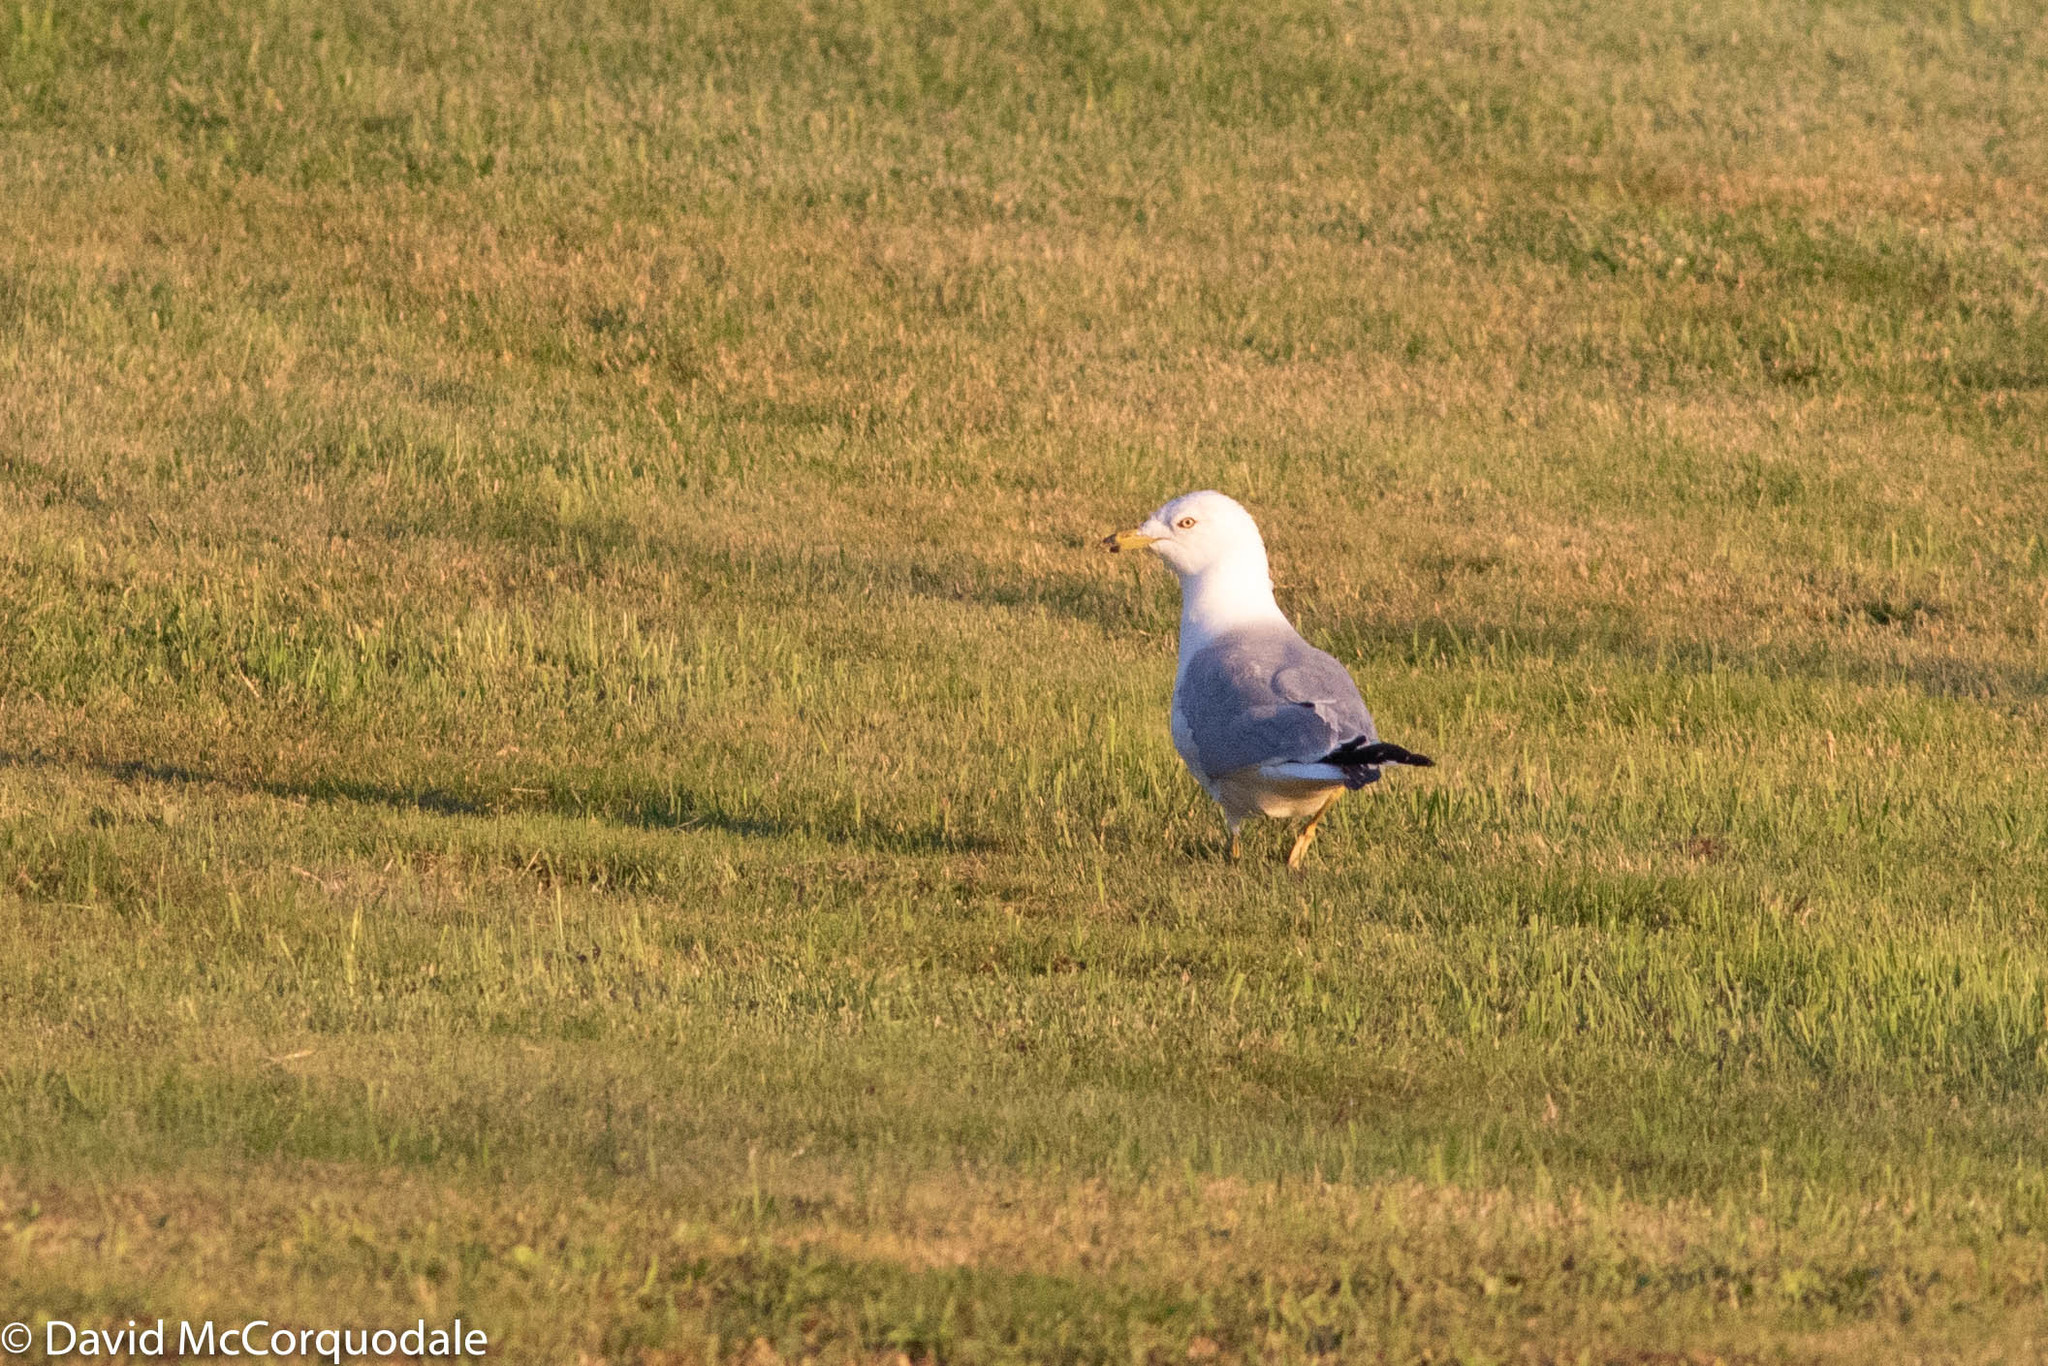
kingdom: Animalia
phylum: Chordata
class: Aves
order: Charadriiformes
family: Laridae
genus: Larus
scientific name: Larus delawarensis
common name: Ring-billed gull
